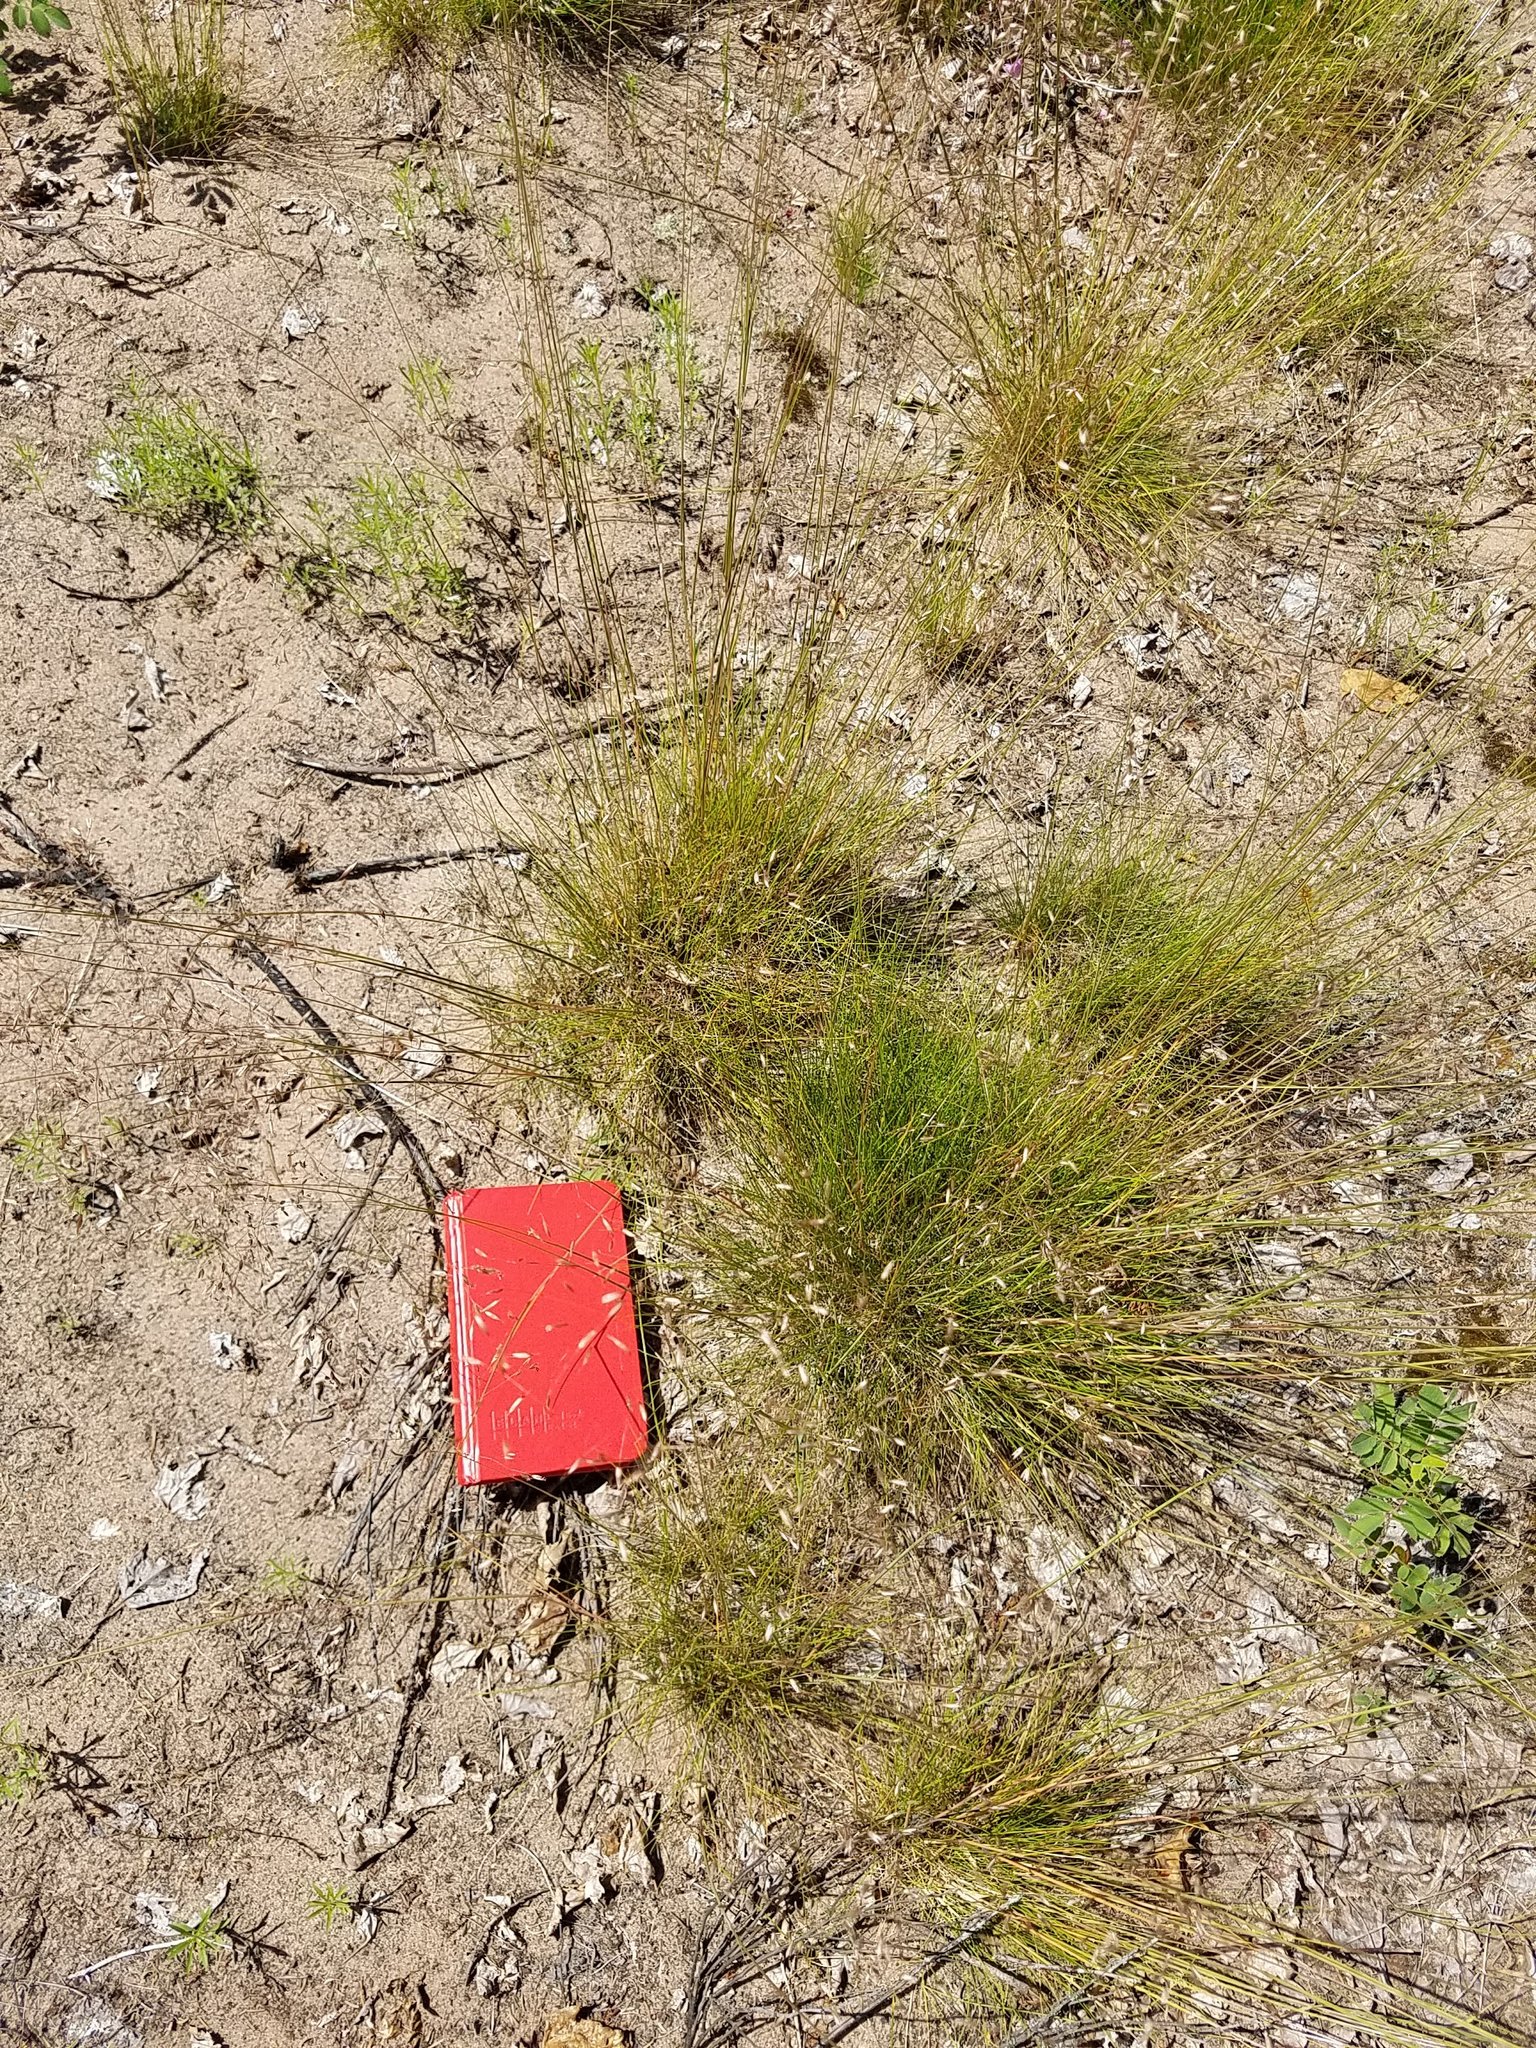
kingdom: Plantae
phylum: Tracheophyta
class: Liliopsida
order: Poales
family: Poaceae
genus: Avenella
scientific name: Avenella flexuosa
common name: Wavy hairgrass
